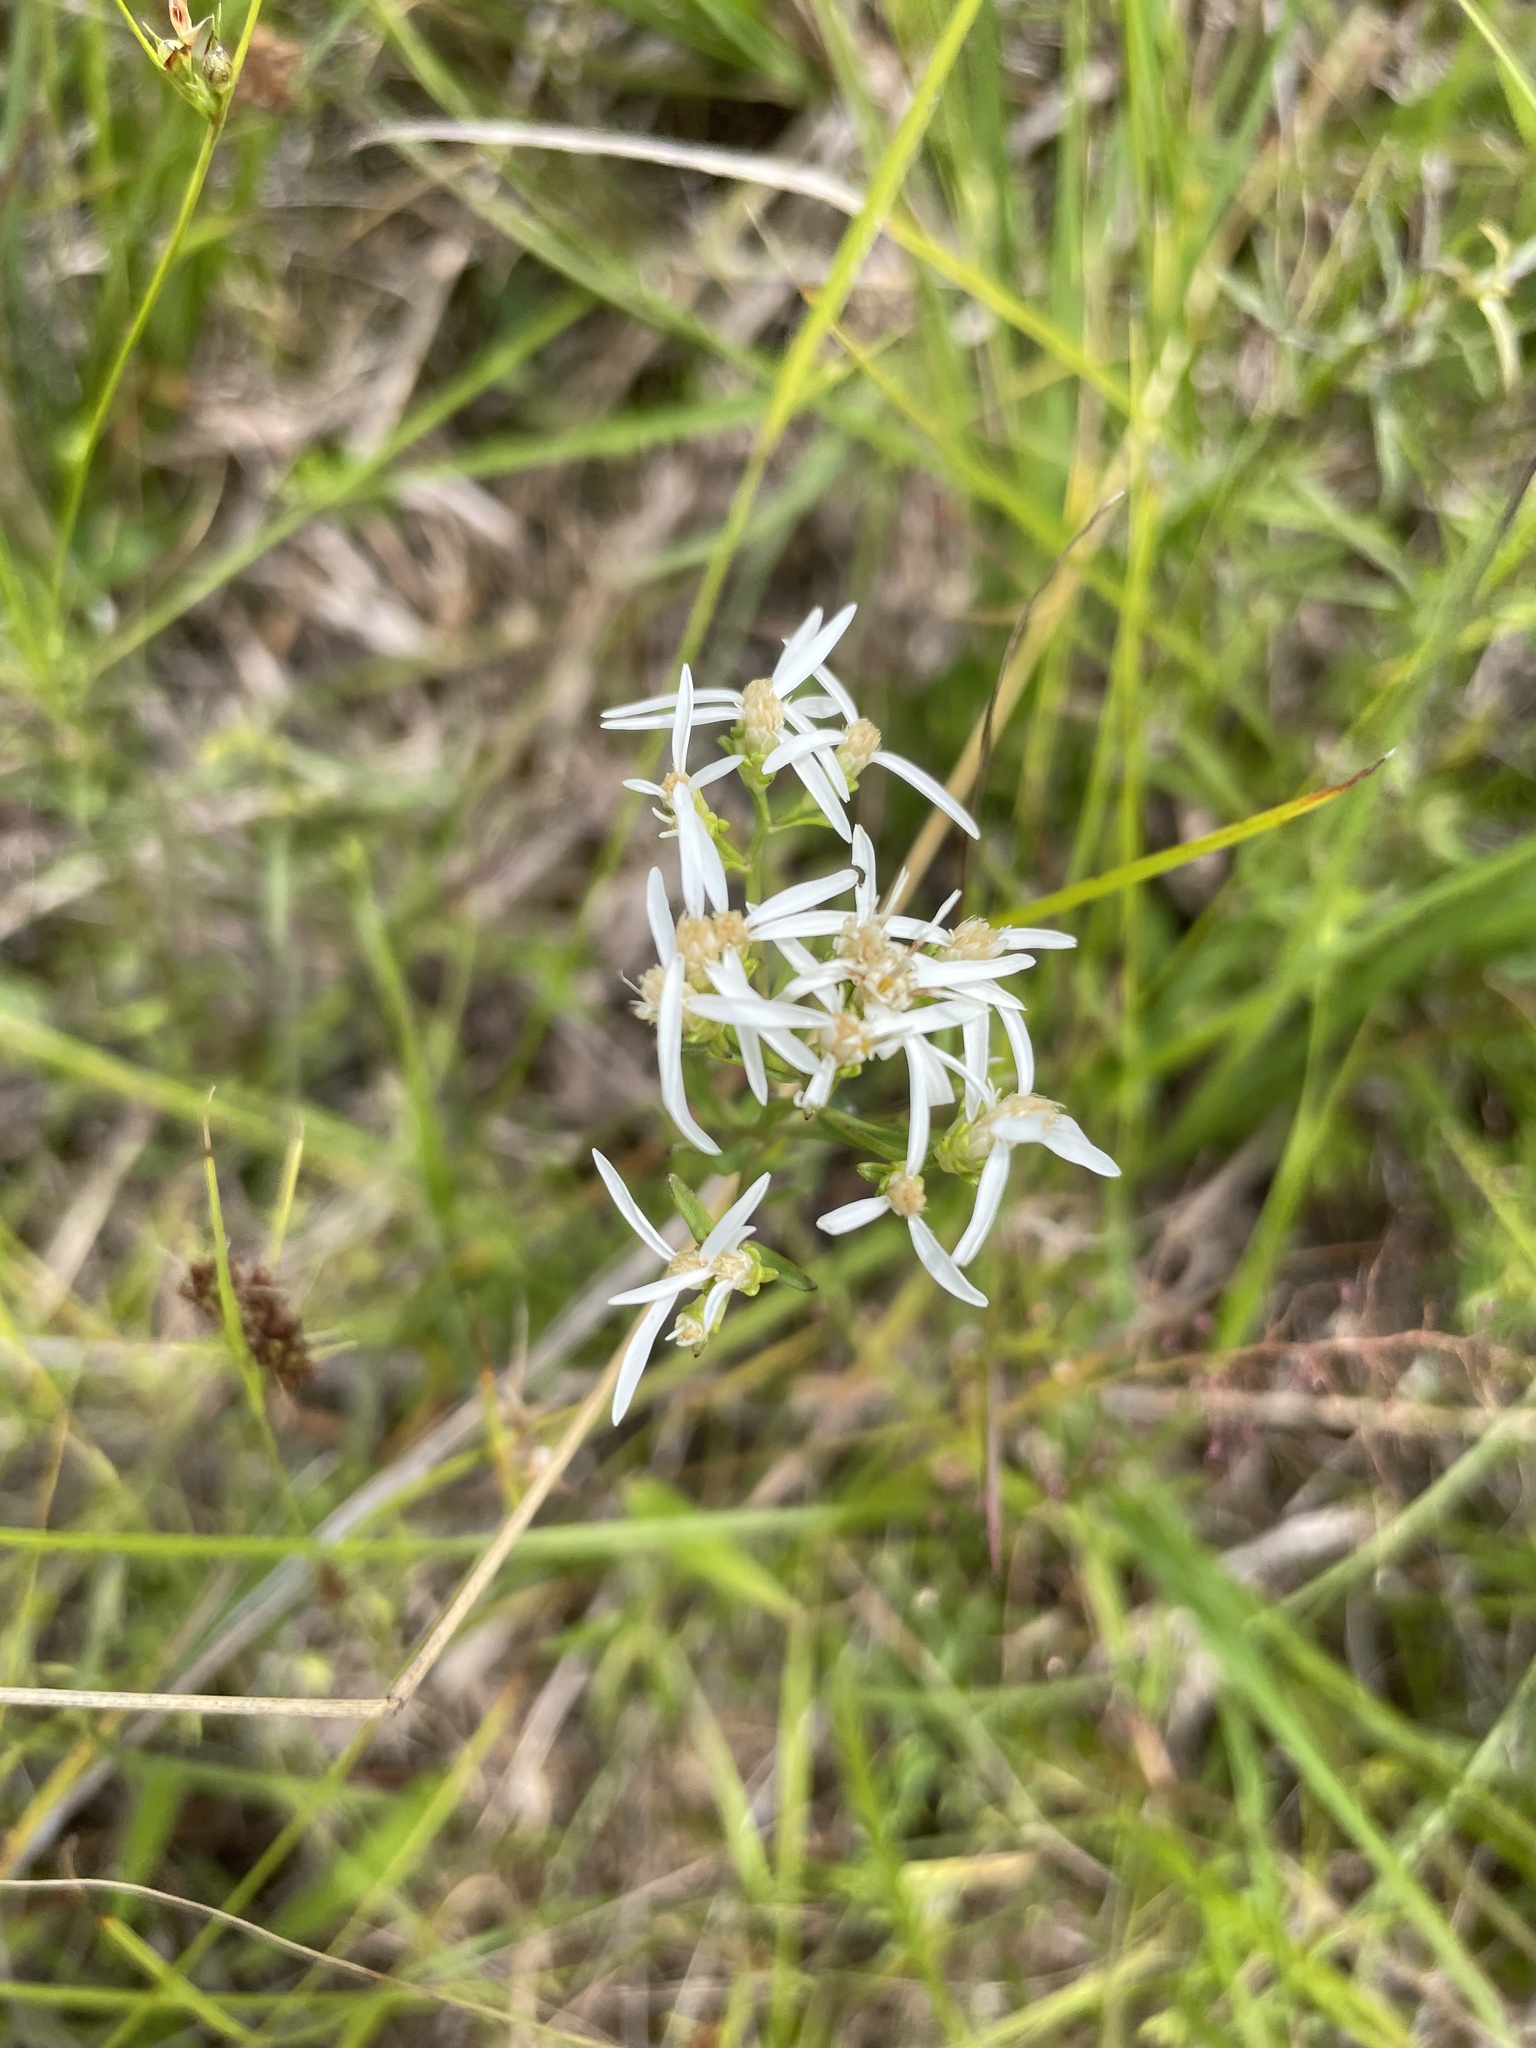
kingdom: Plantae
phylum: Tracheophyta
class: Magnoliopsida
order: Asterales
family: Asteraceae
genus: Sericocarpus
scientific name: Sericocarpus linifolius
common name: Narrow-leaf aster
